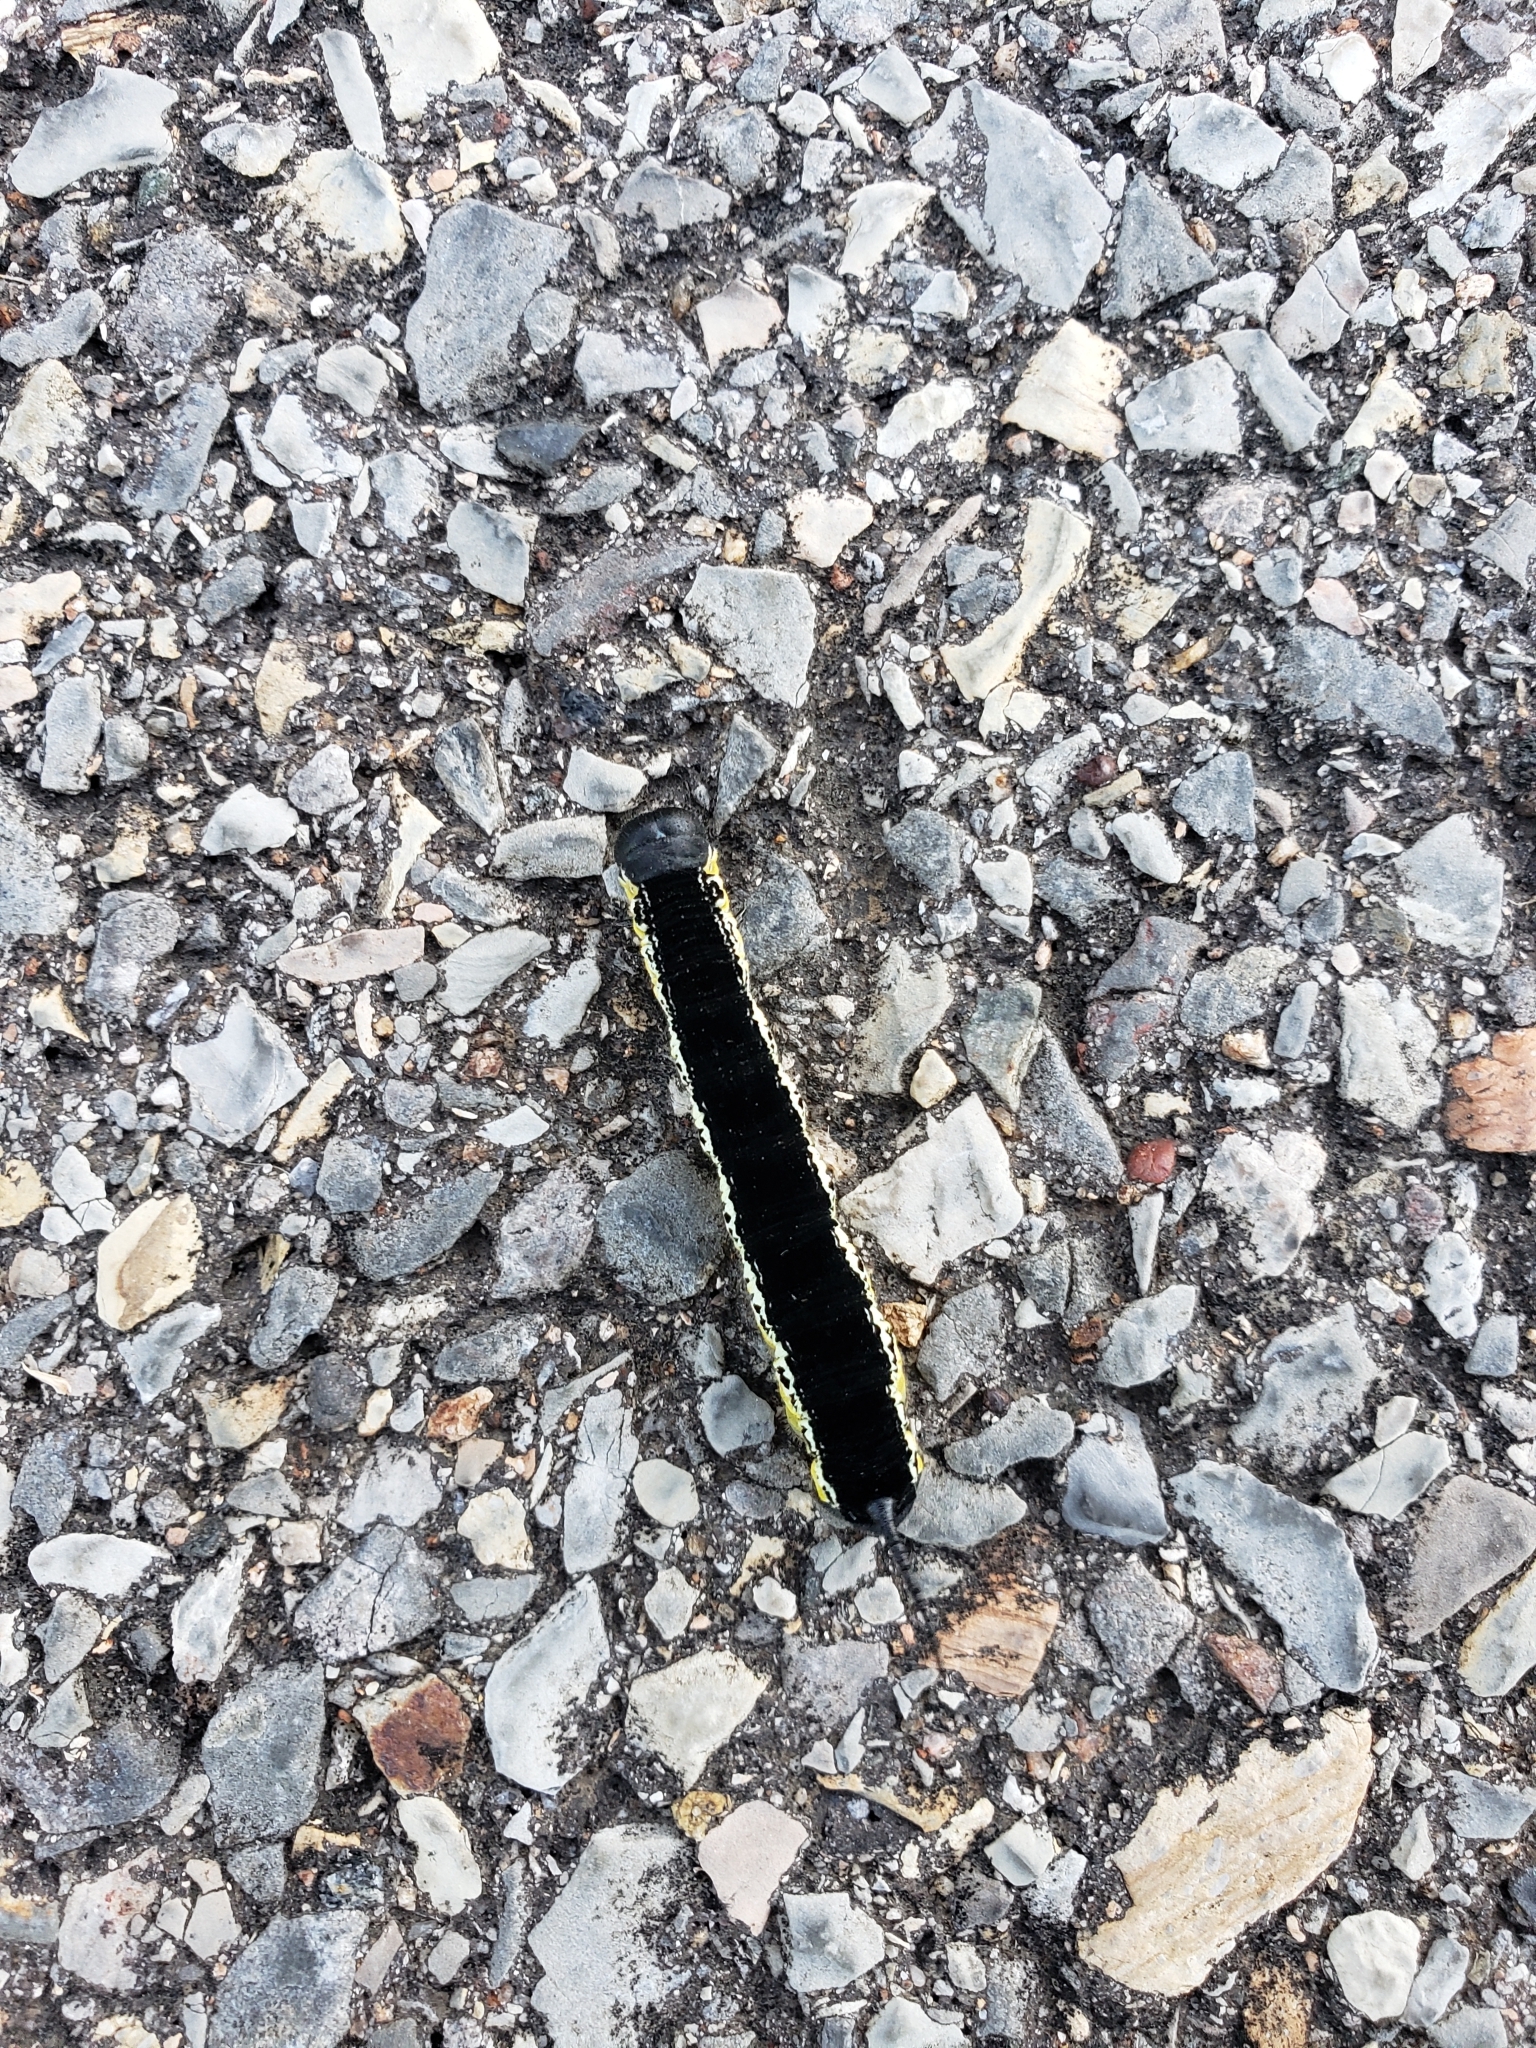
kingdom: Animalia
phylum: Arthropoda
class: Insecta
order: Lepidoptera
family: Sphingidae
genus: Ceratomia
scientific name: Ceratomia catalpae
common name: Catalpa hornworm
